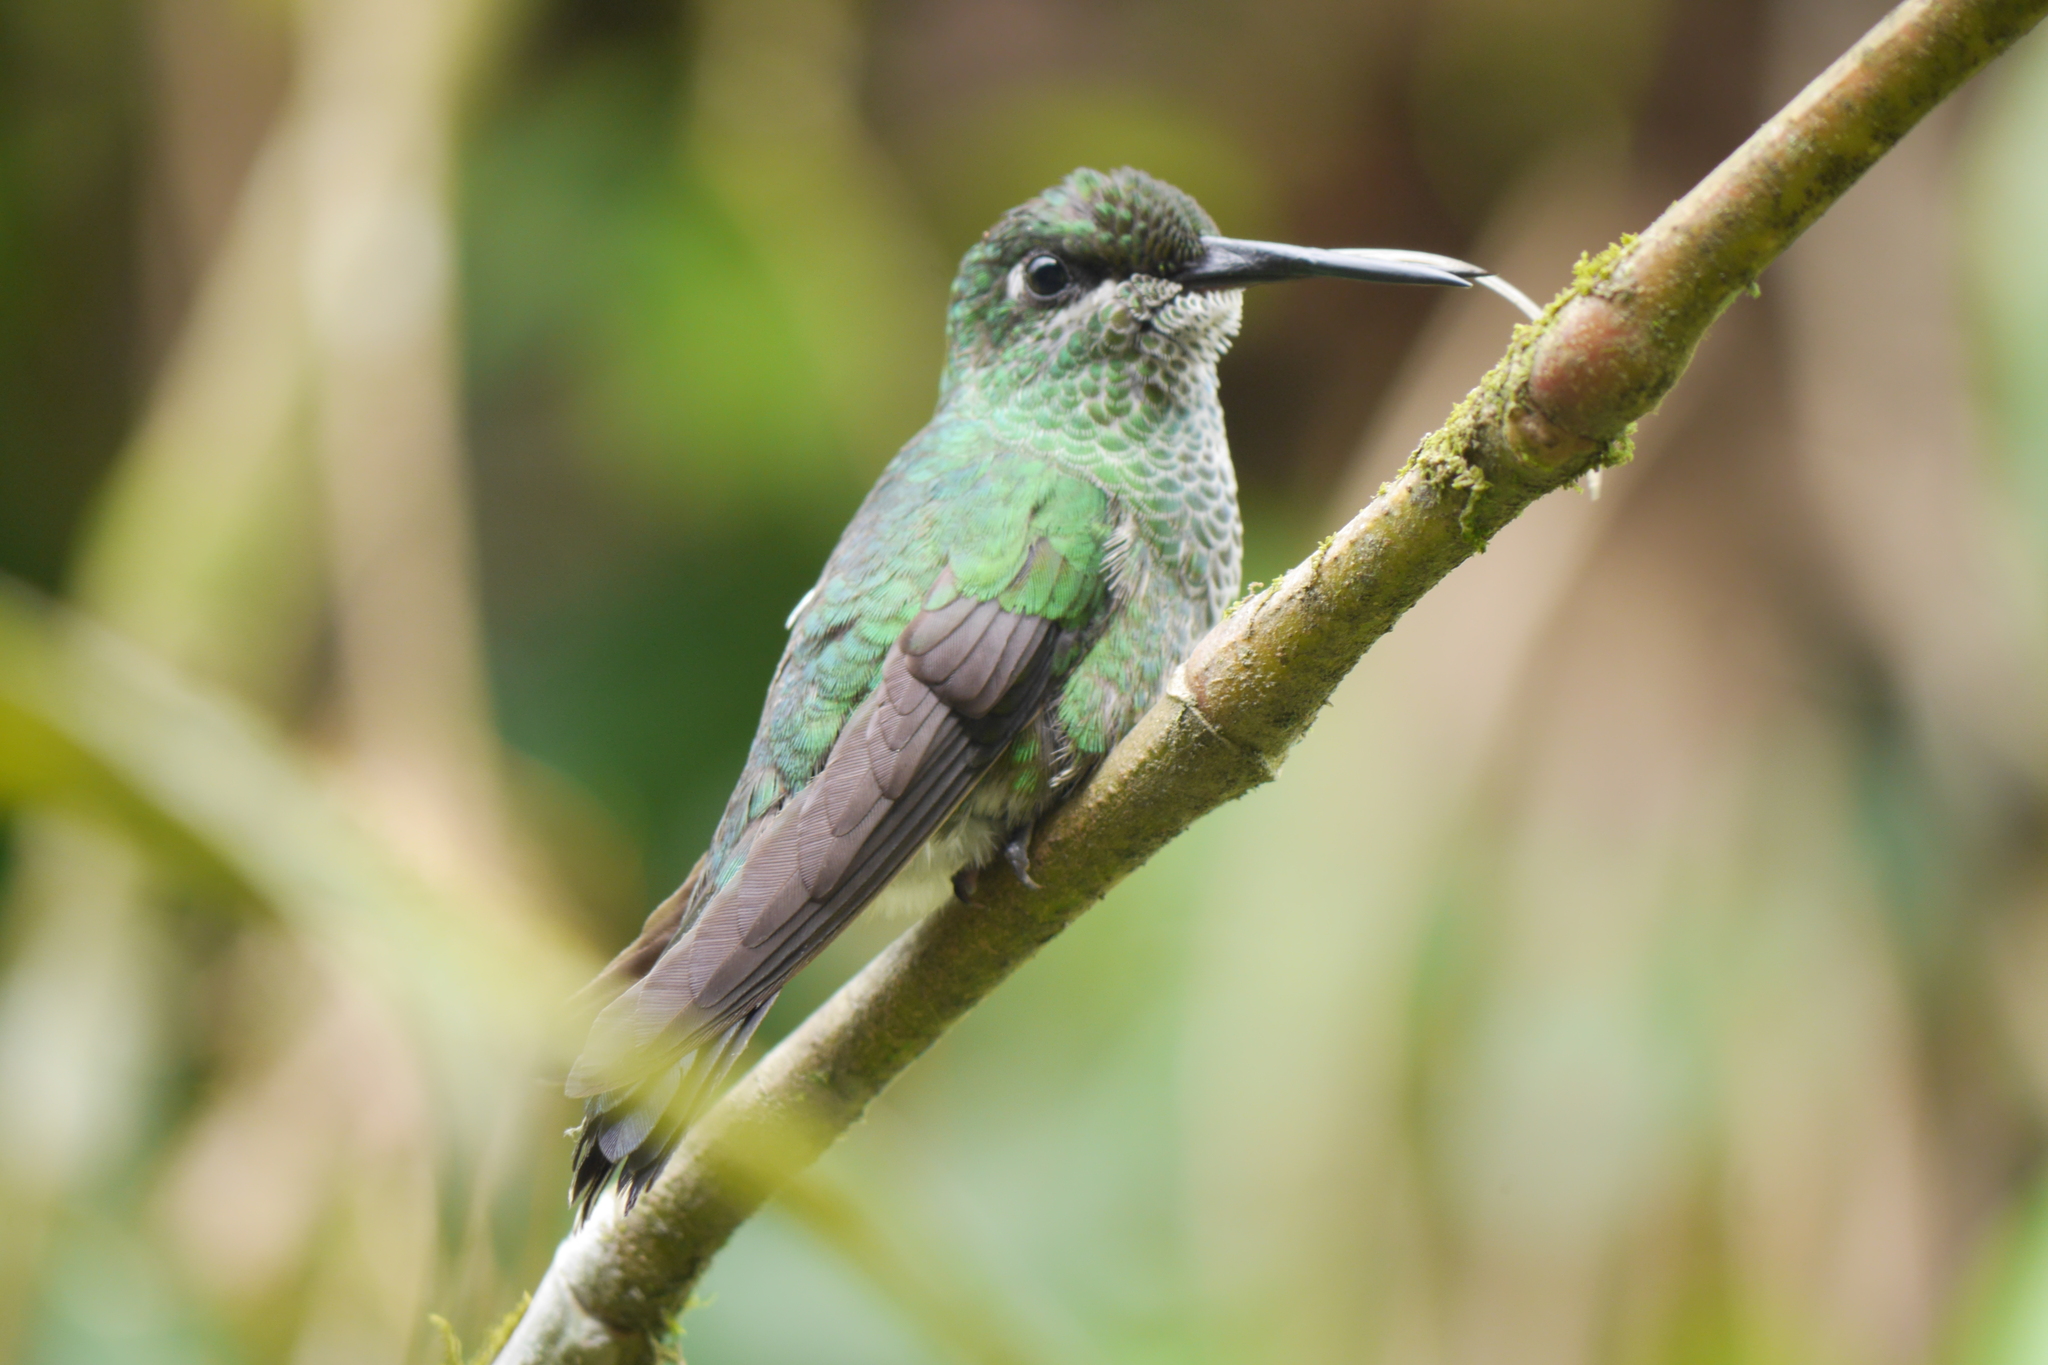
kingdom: Animalia
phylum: Chordata
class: Aves
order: Apodiformes
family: Trochilidae
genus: Heliodoxa
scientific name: Heliodoxa jacula
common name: Green-crowned brilliant
